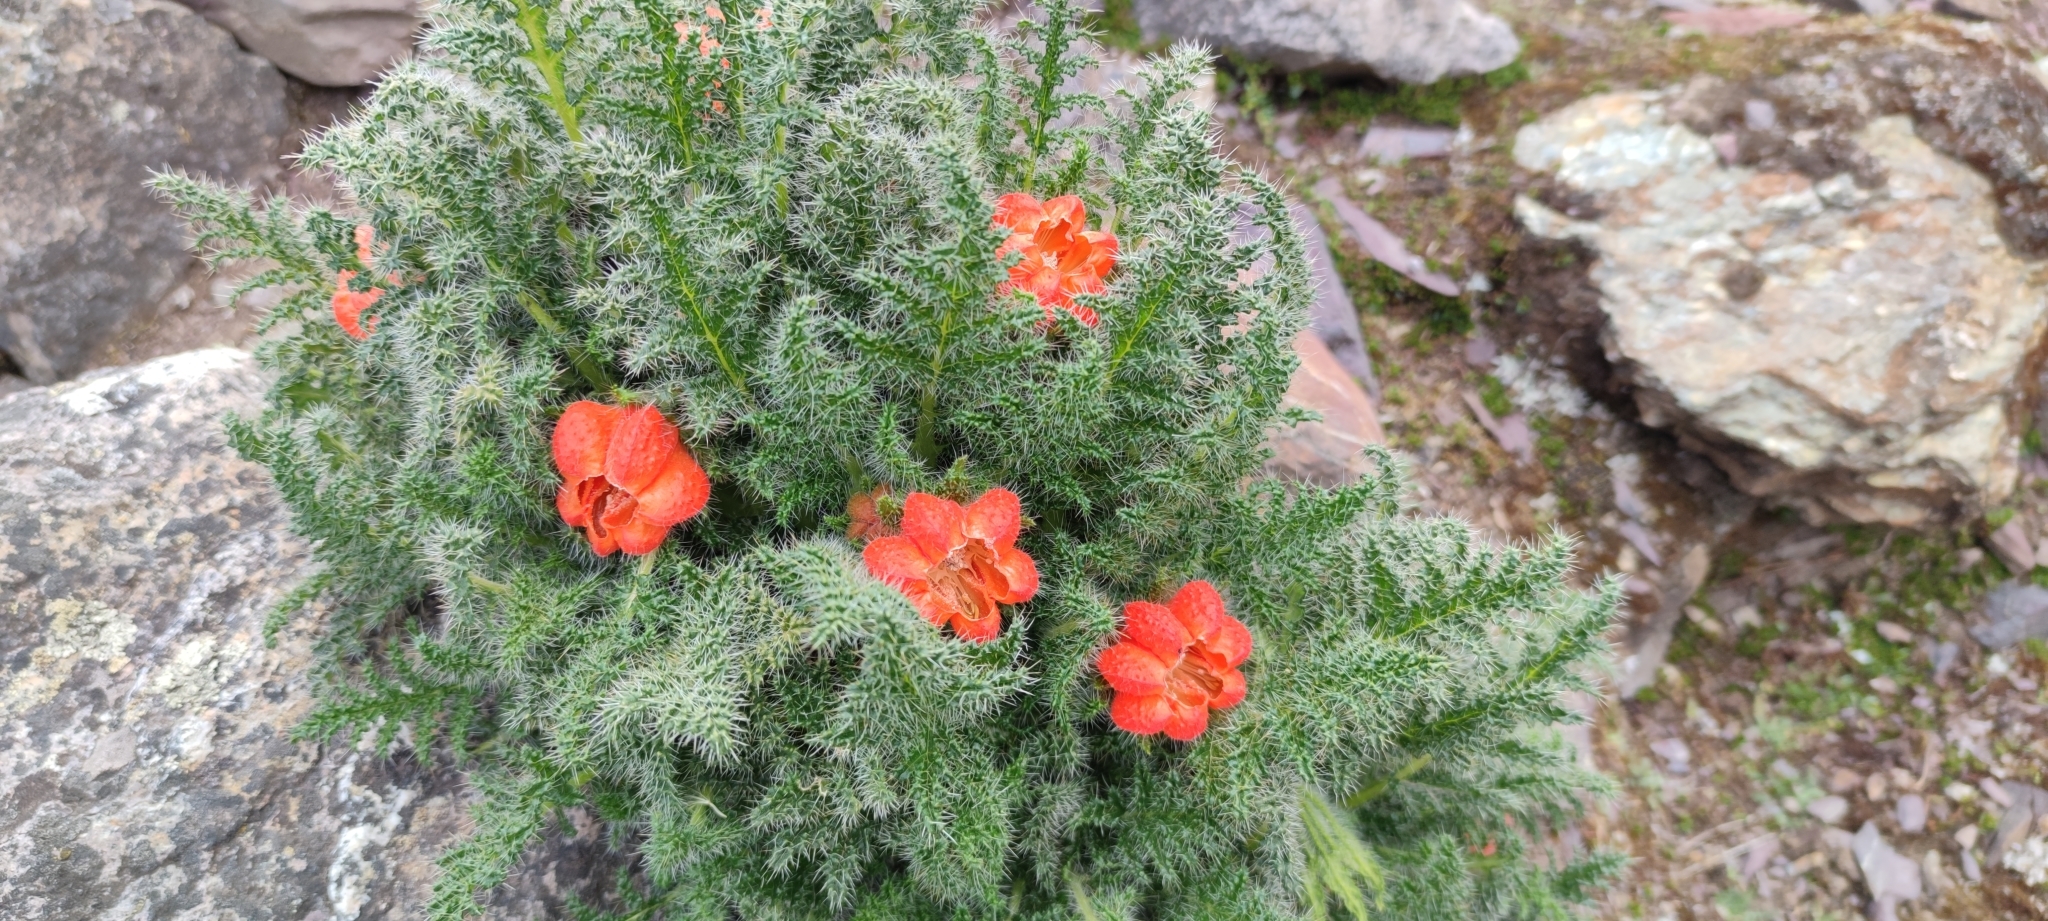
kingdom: Plantae
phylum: Tracheophyta
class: Magnoliopsida
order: Cornales
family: Loasaceae
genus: Caiophora
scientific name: Caiophora chuquitensis
